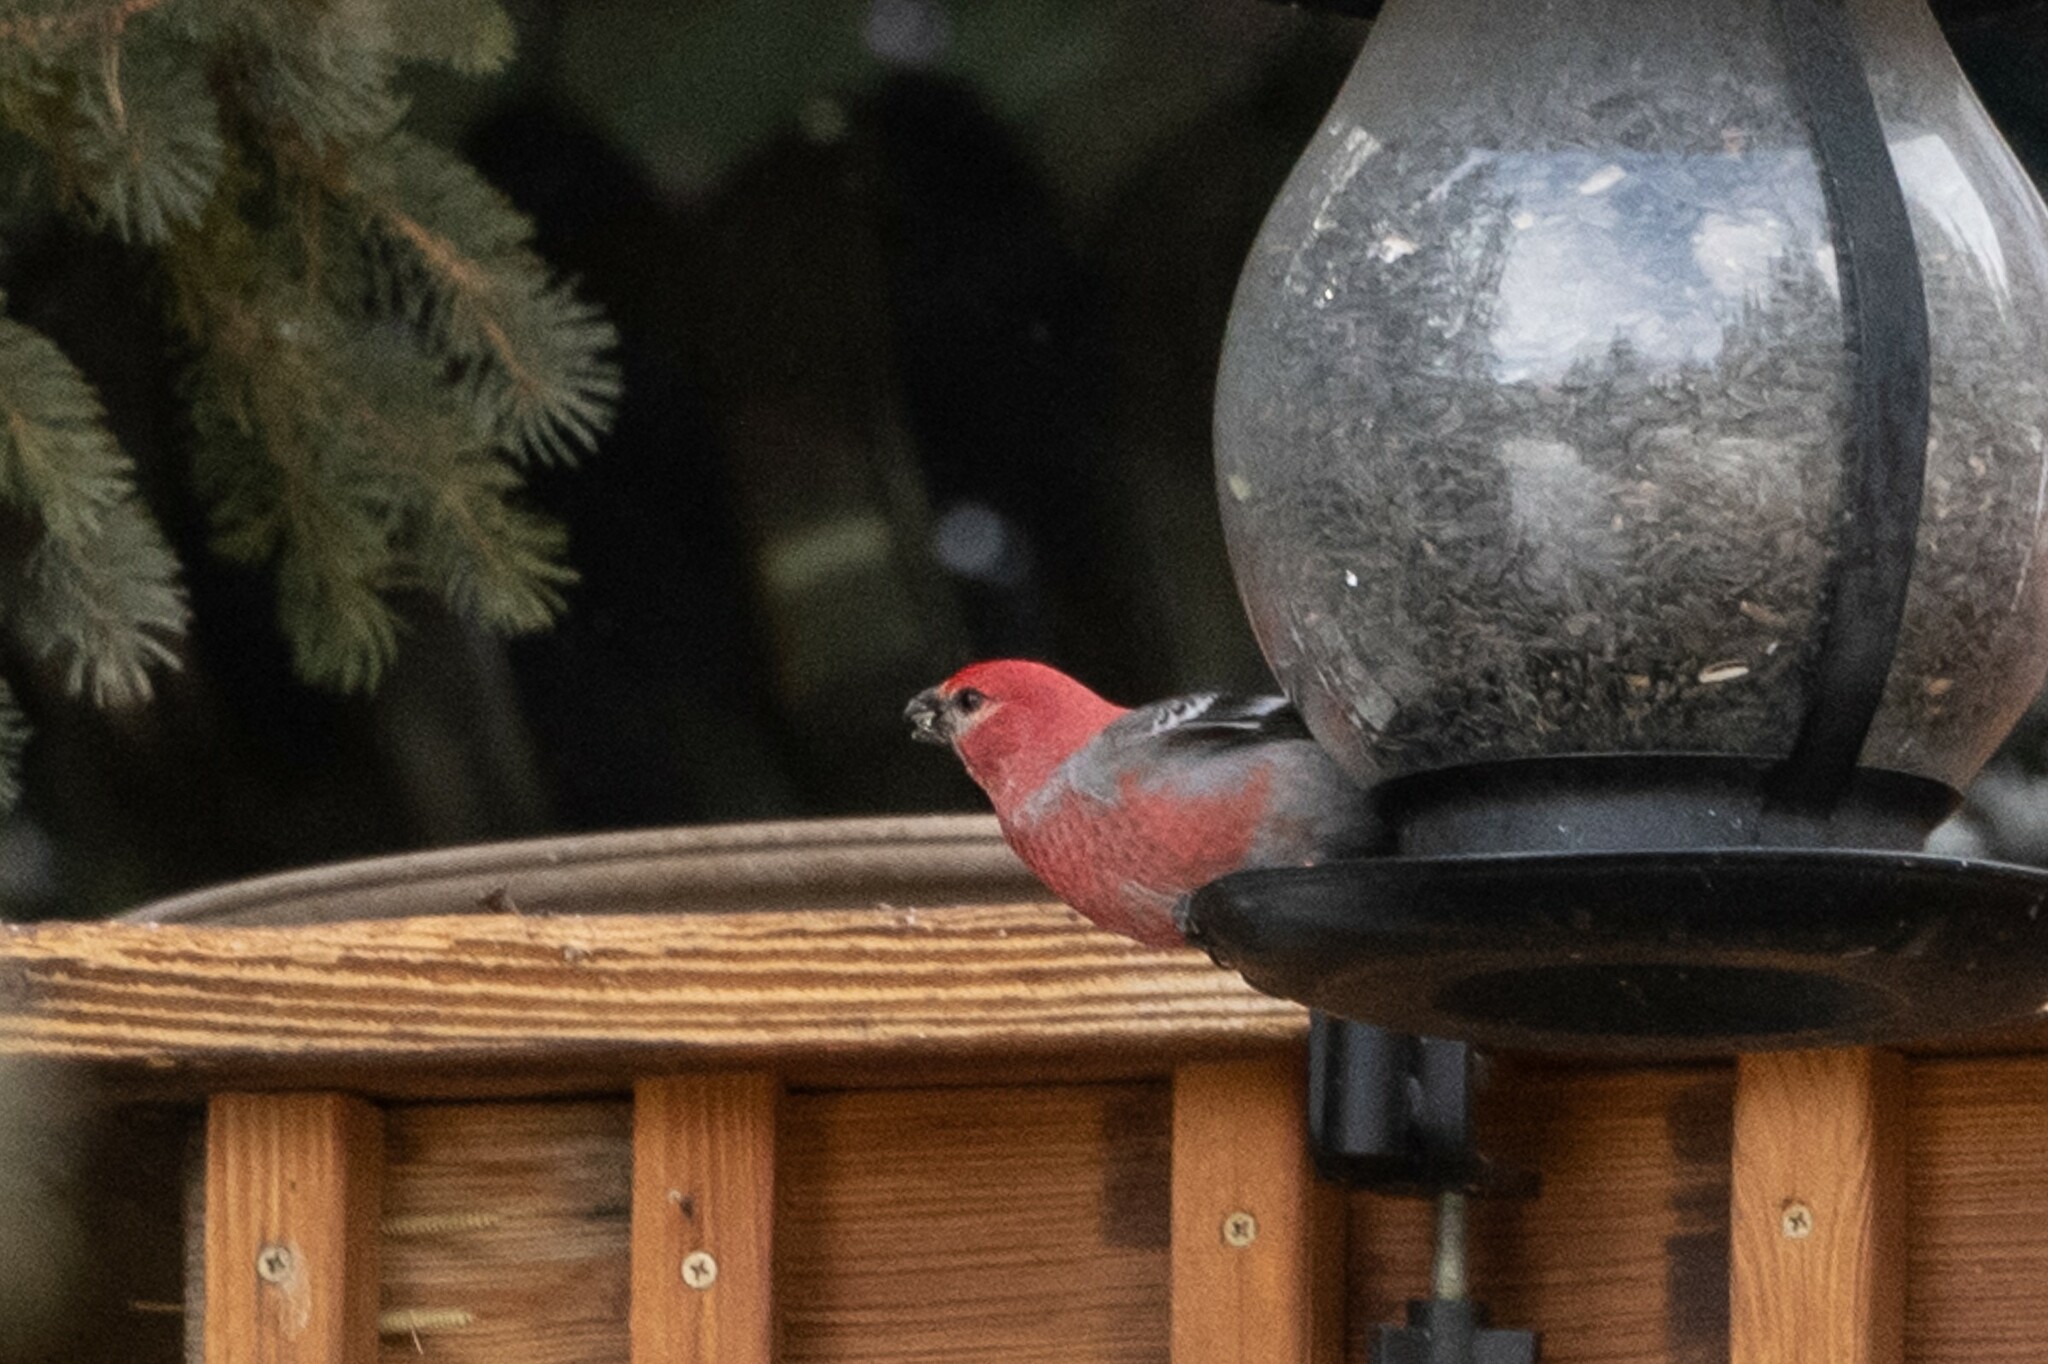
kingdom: Animalia
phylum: Chordata
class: Aves
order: Passeriformes
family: Fringillidae
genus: Pinicola
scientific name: Pinicola enucleator
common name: Pine grosbeak
